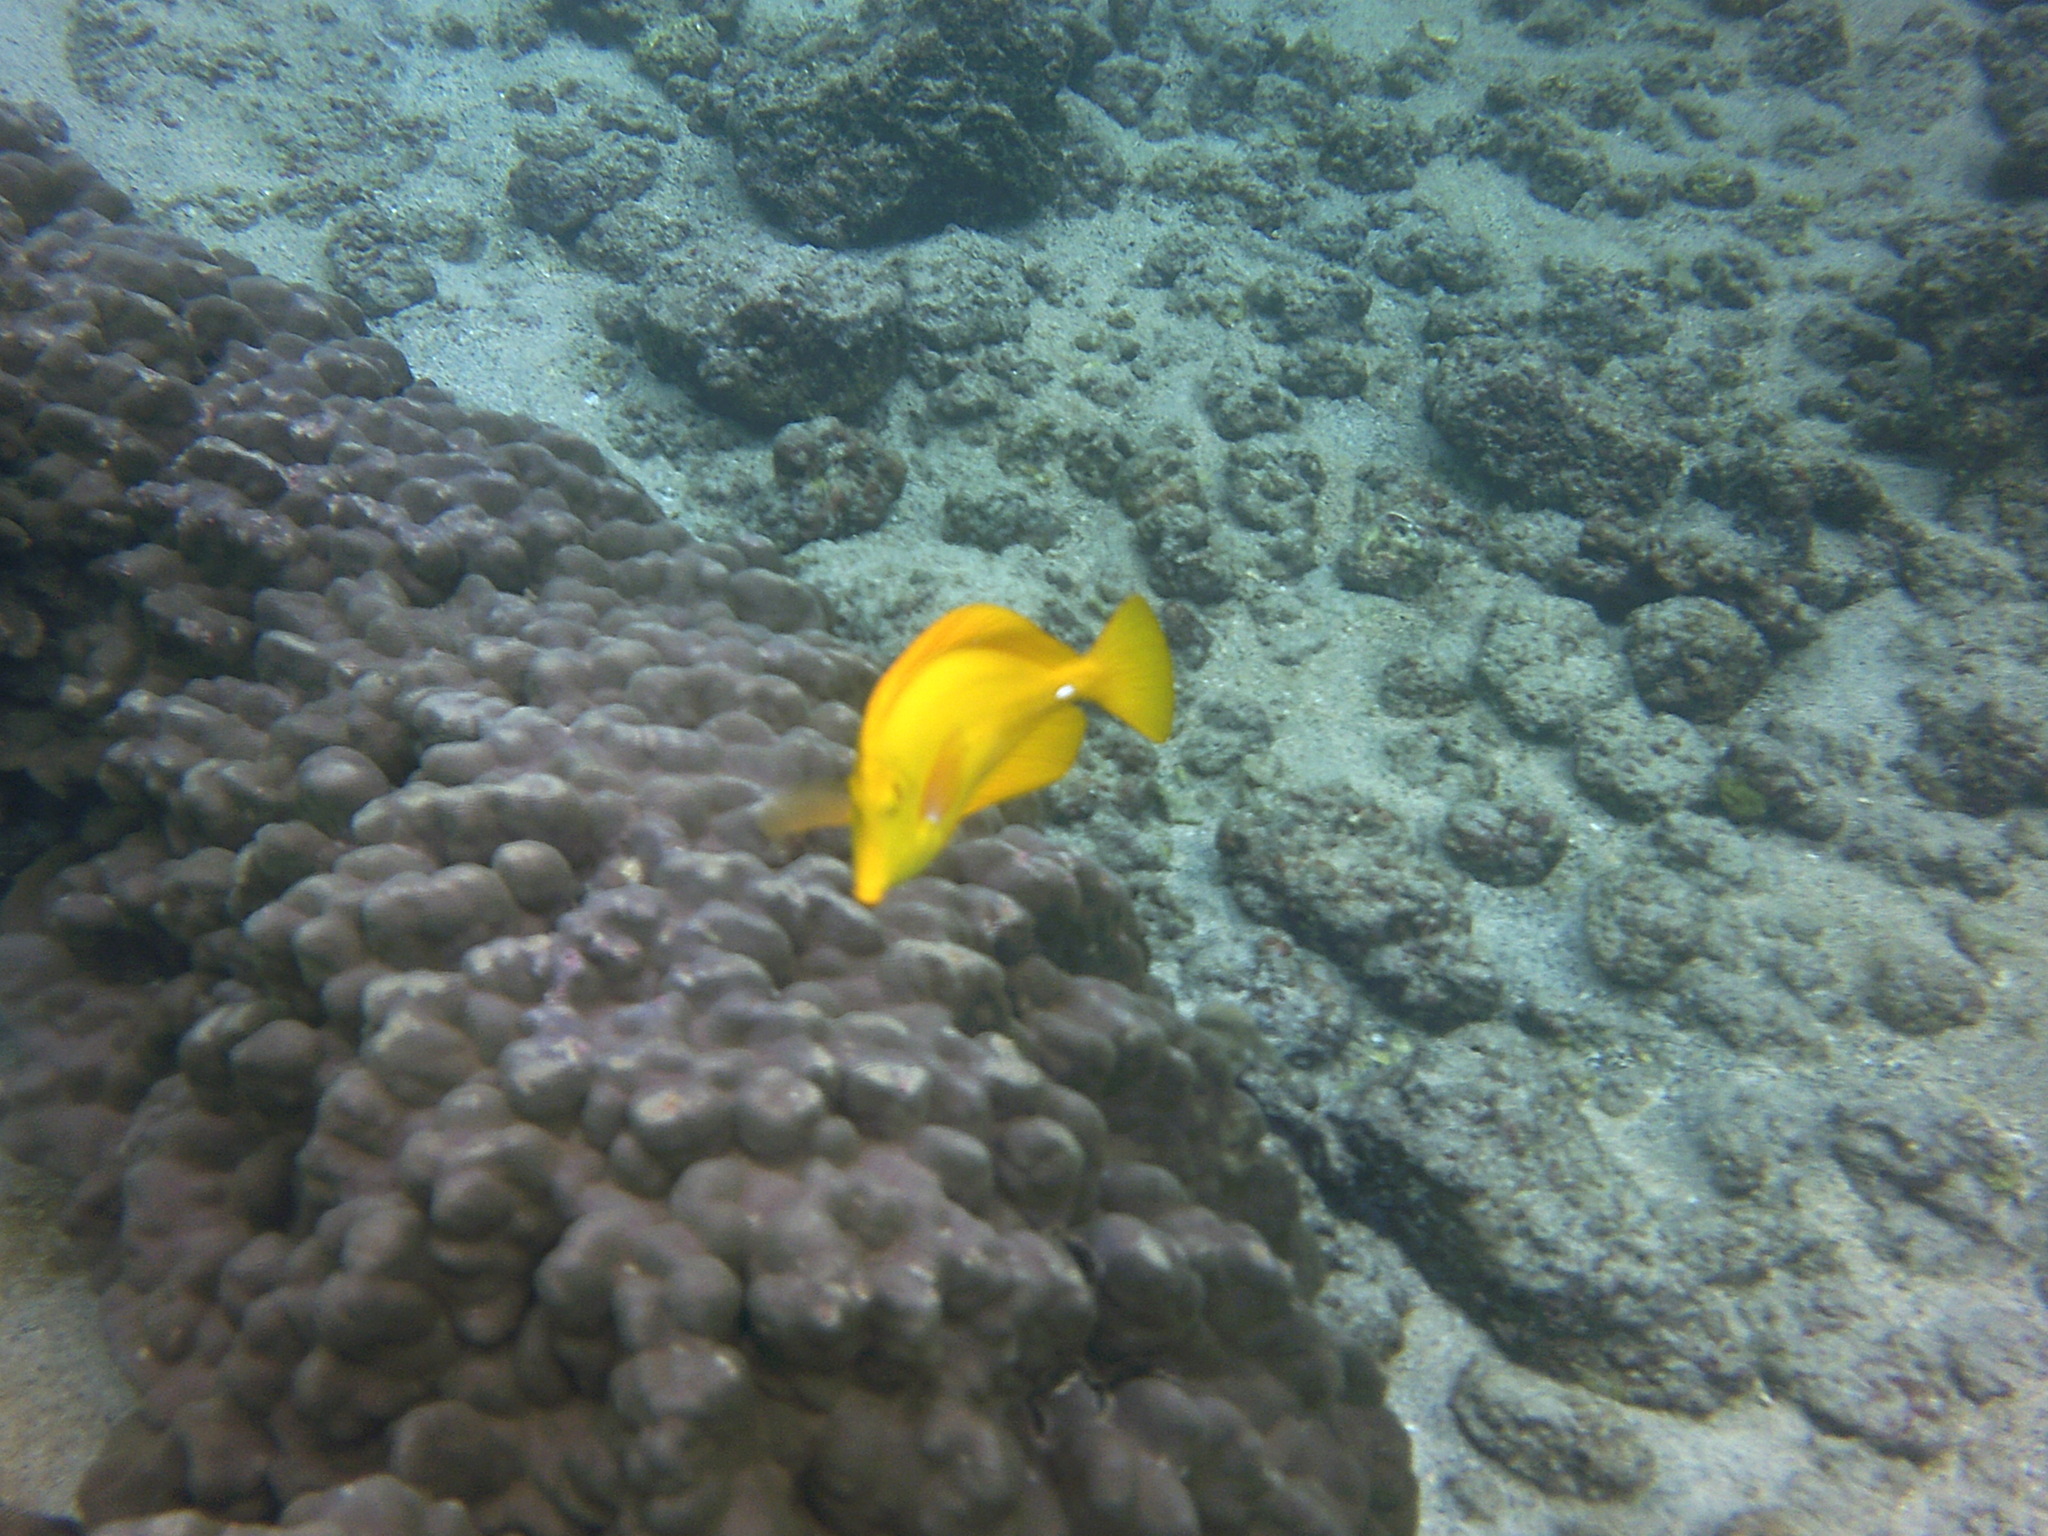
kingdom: Animalia
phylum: Chordata
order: Perciformes
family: Acanthuridae
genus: Zebrasoma
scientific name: Zebrasoma flavescens
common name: Yellow tang
